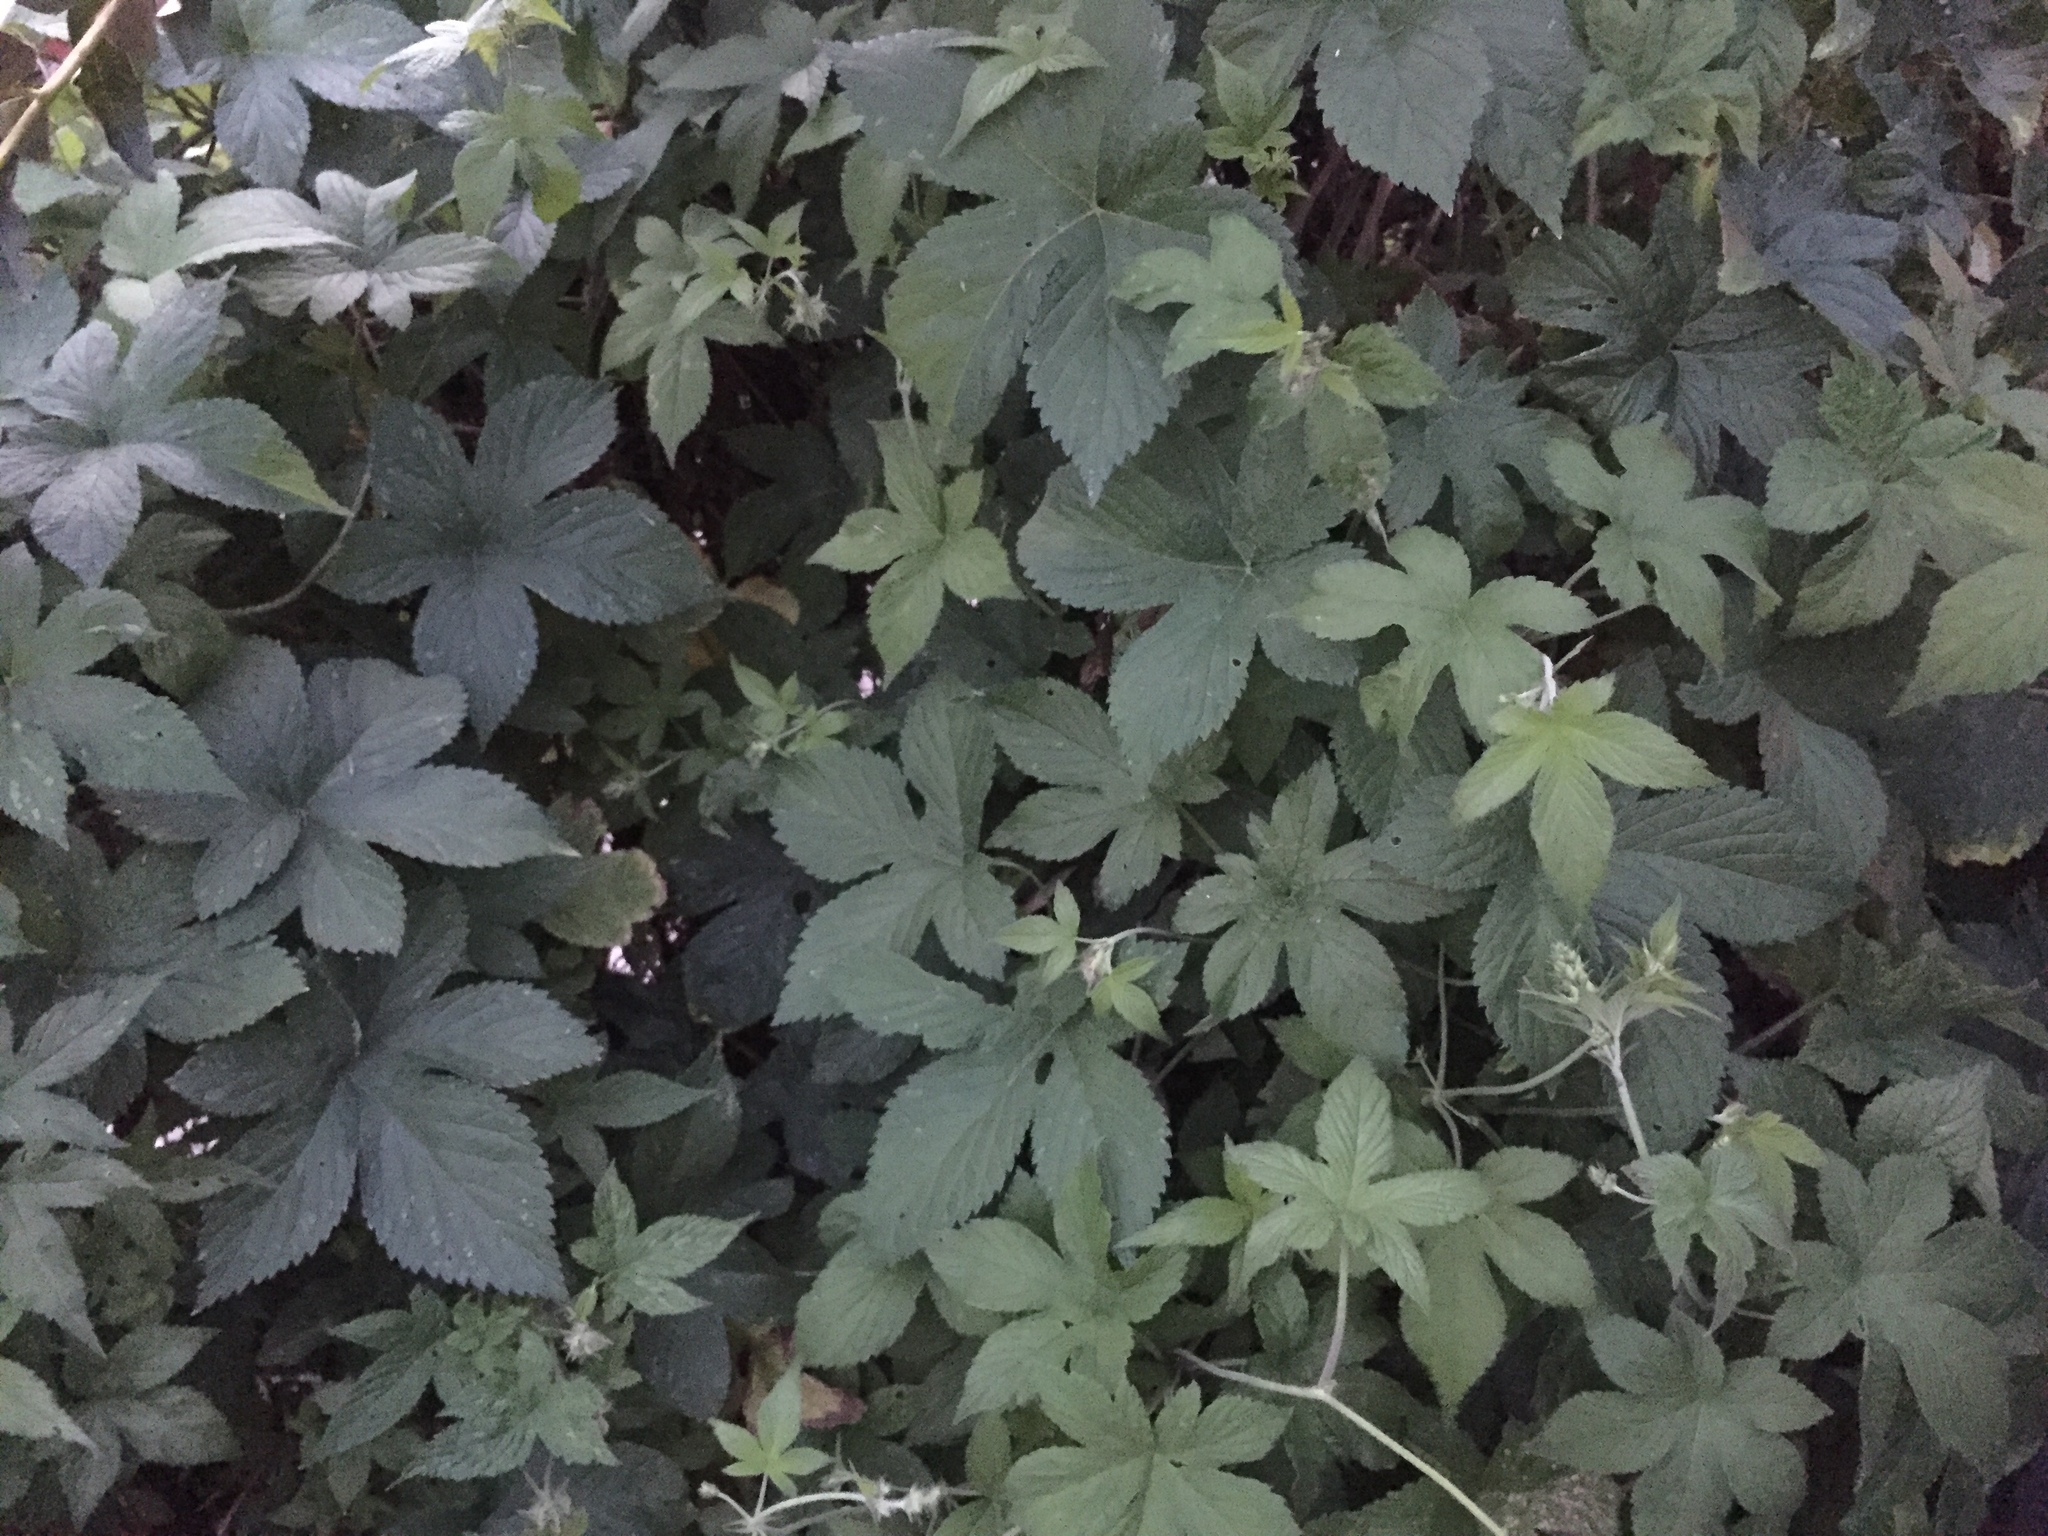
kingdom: Plantae
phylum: Tracheophyta
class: Magnoliopsida
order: Rosales
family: Cannabaceae
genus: Humulus
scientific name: Humulus scandens
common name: Japanese hop
